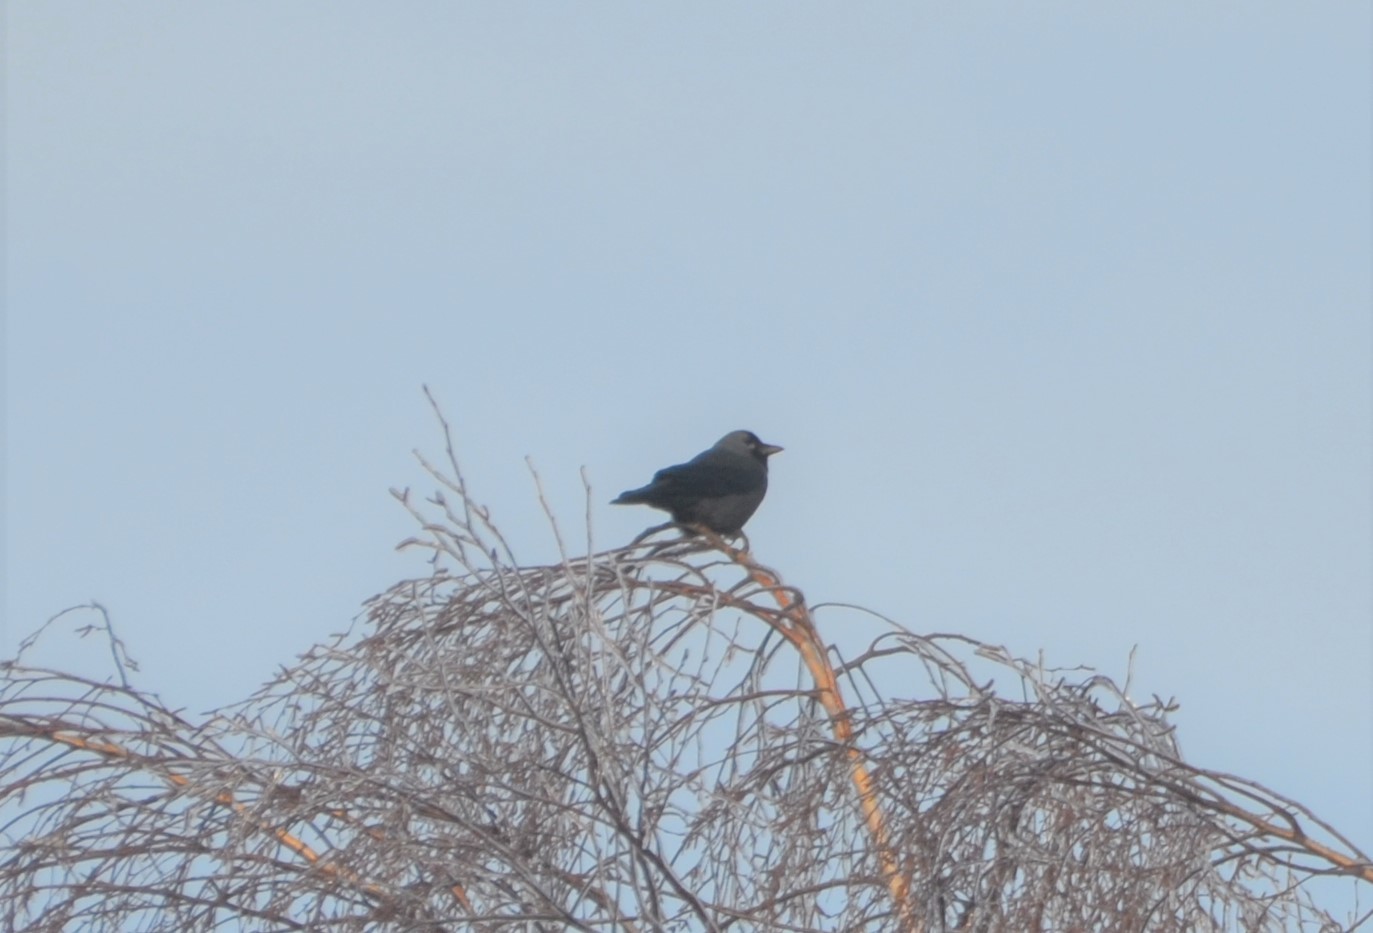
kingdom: Animalia
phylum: Chordata
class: Aves
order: Passeriformes
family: Corvidae
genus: Coloeus
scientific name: Coloeus monedula
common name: Western jackdaw
